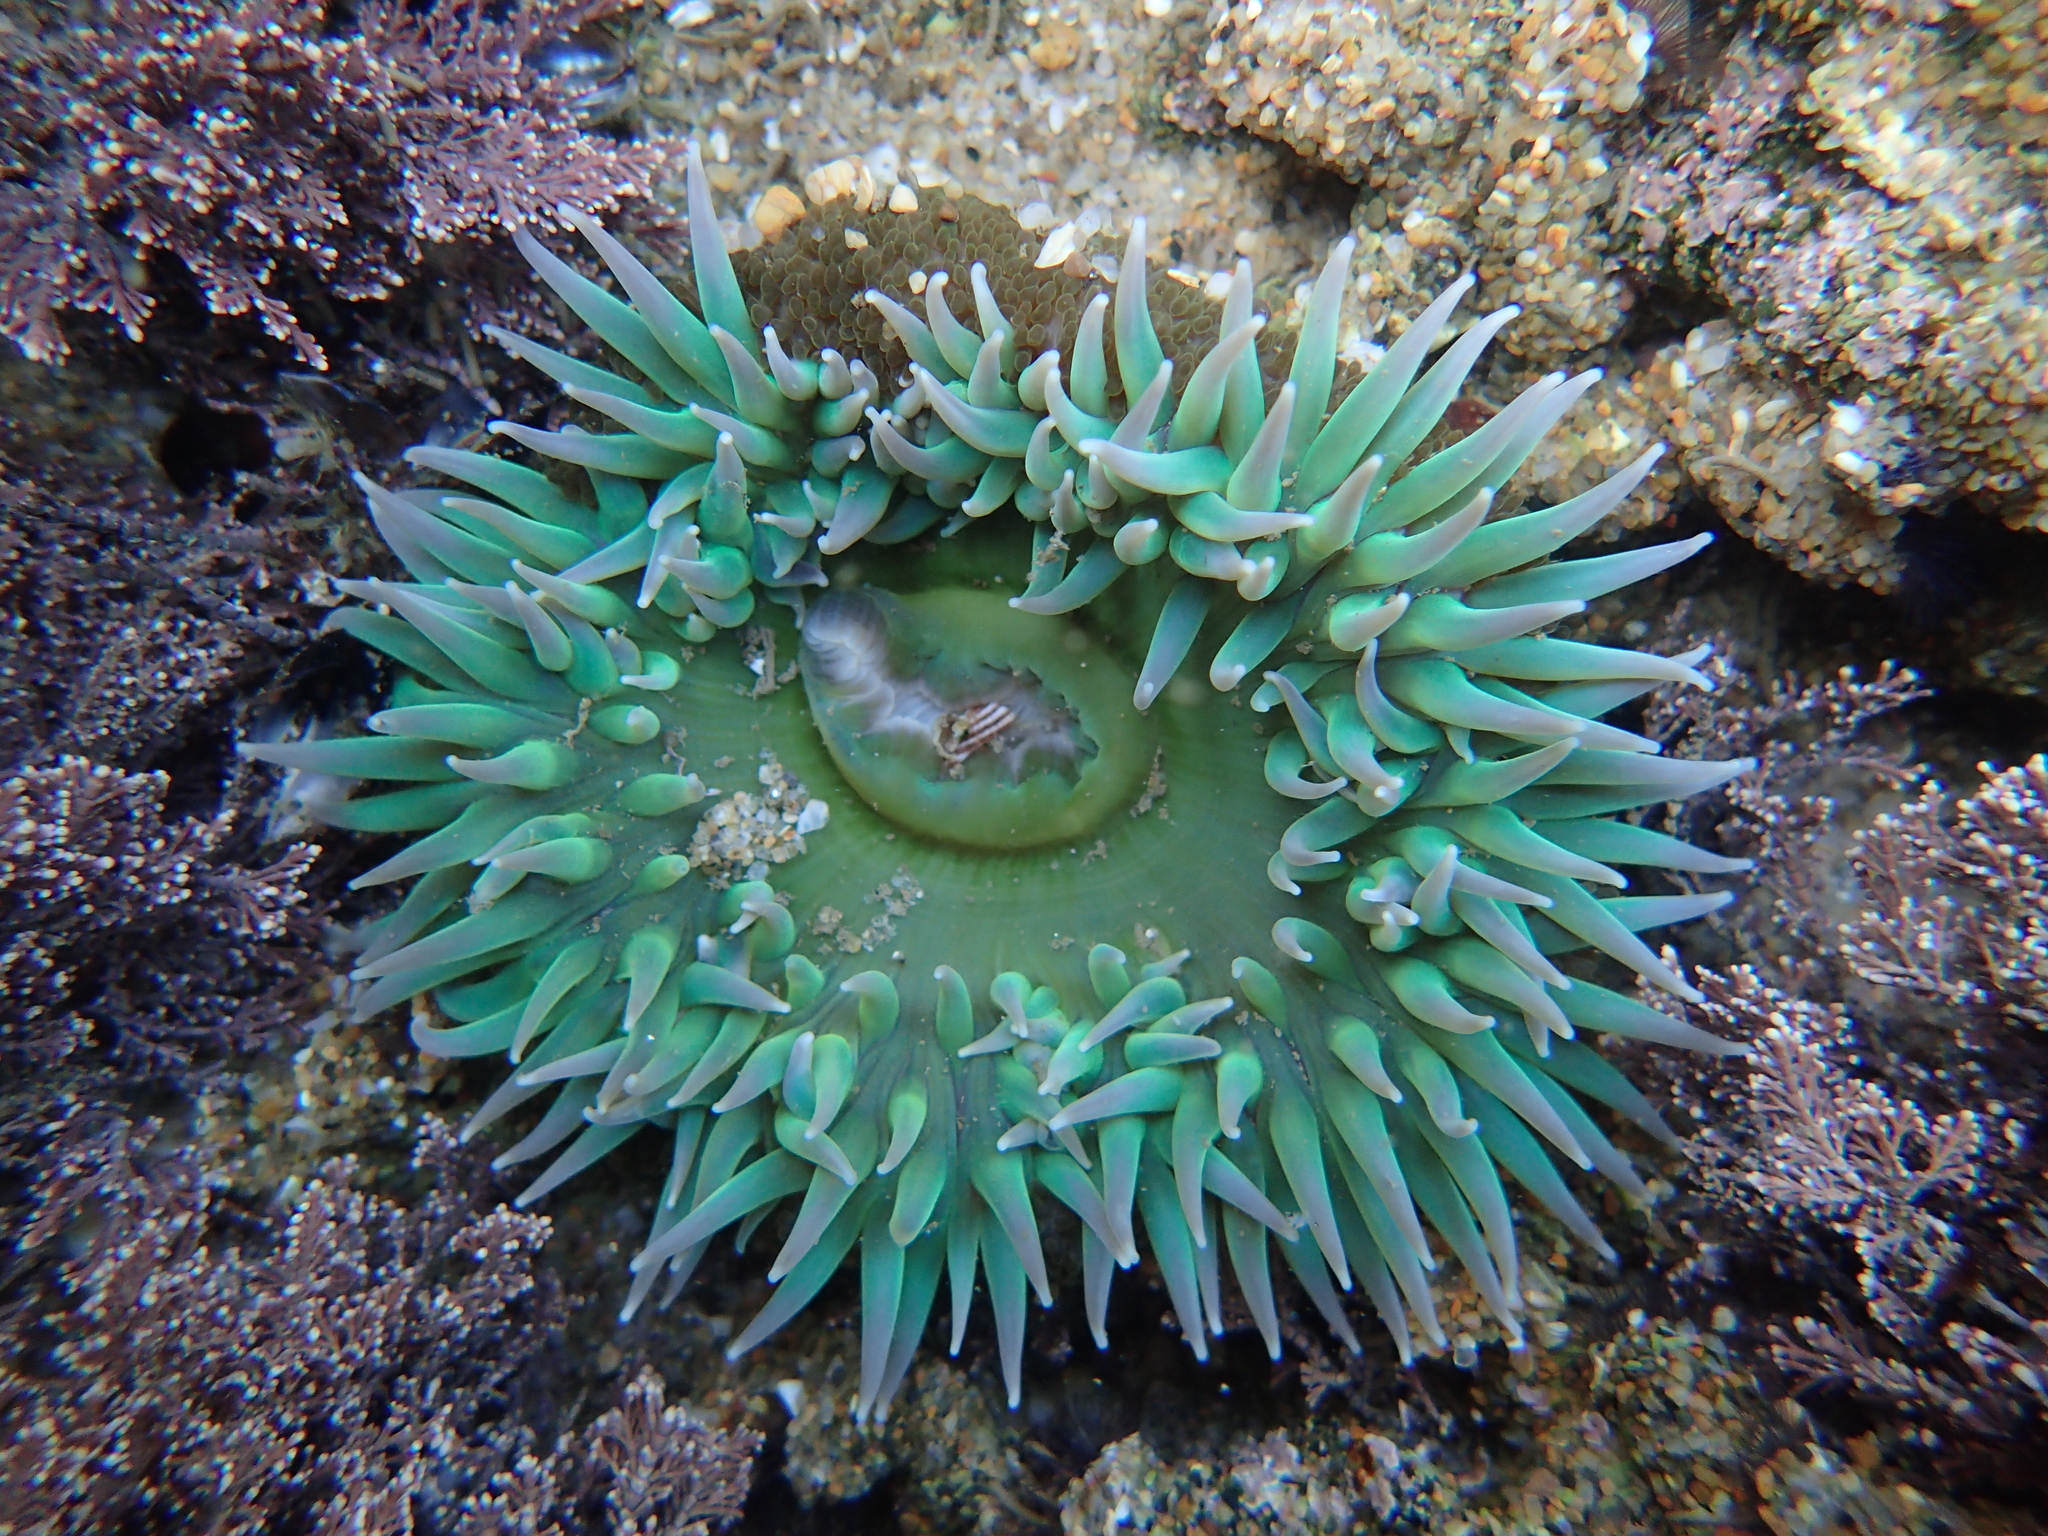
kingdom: Animalia
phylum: Cnidaria
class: Anthozoa
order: Actiniaria
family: Actiniidae
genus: Anthopleura
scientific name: Anthopleura xanthogrammica
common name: Giant green anemone
